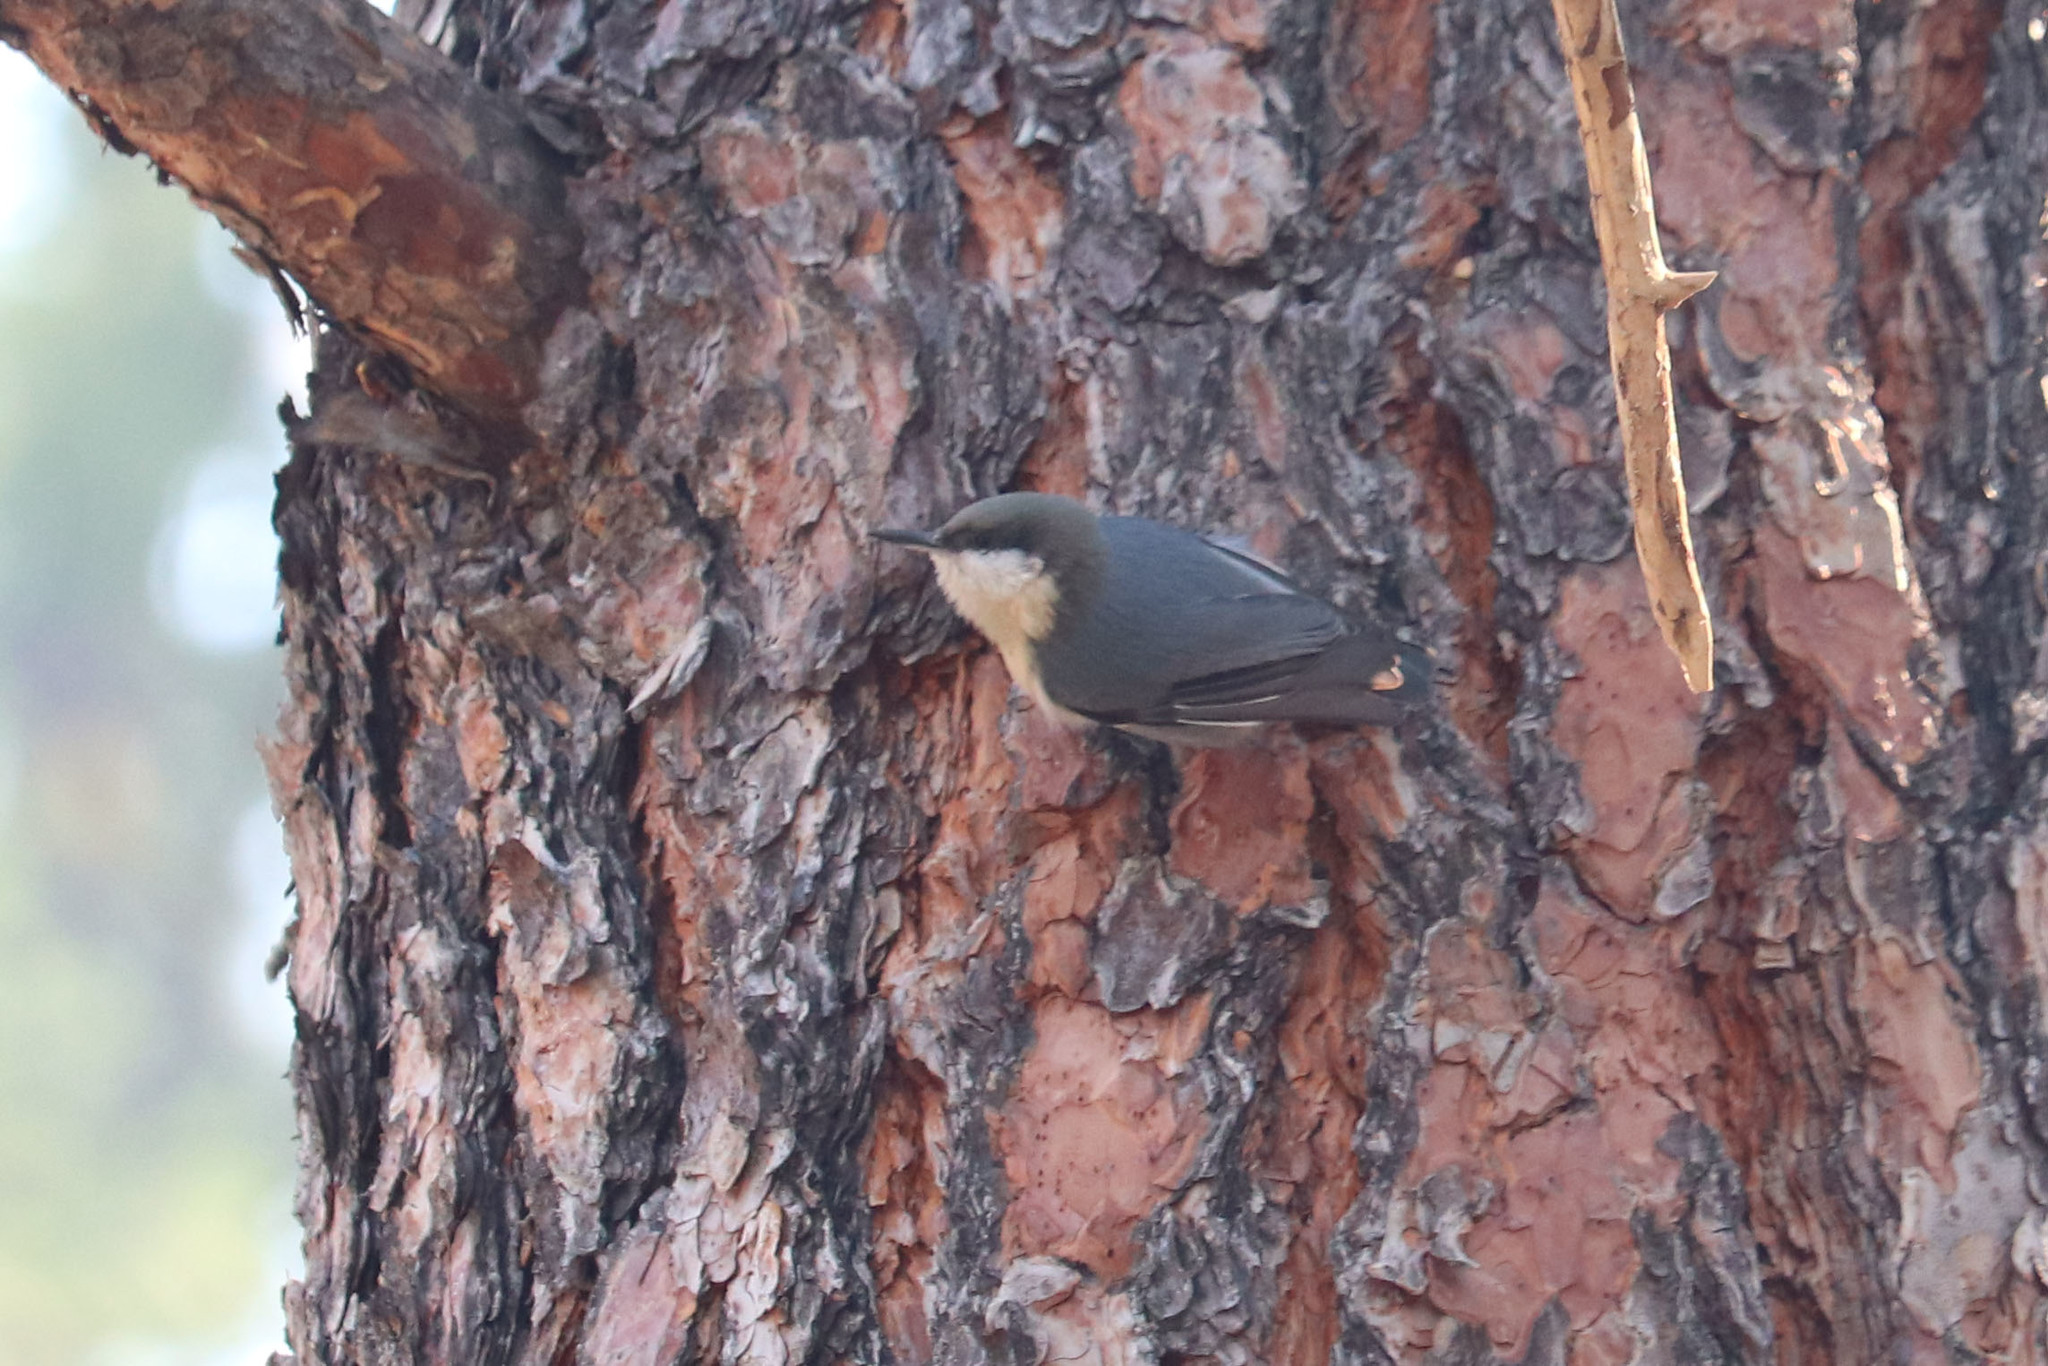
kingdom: Animalia
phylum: Chordata
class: Aves
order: Passeriformes
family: Sittidae
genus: Sitta
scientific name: Sitta pygmaea
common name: Pygmy nuthatch
